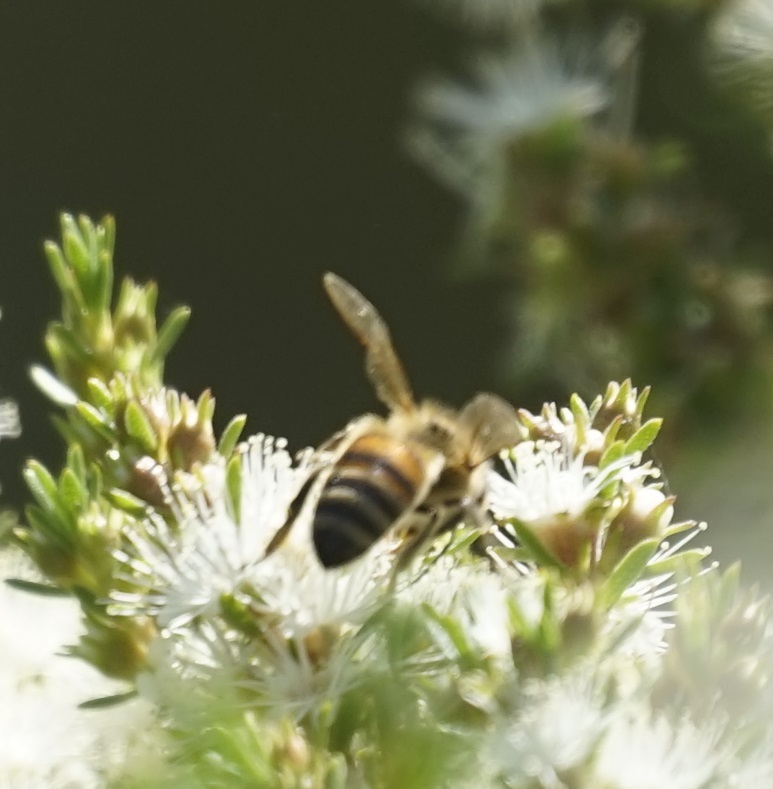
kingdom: Animalia
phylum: Arthropoda
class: Insecta
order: Hymenoptera
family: Apidae
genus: Apis
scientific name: Apis mellifera
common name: Honey bee
